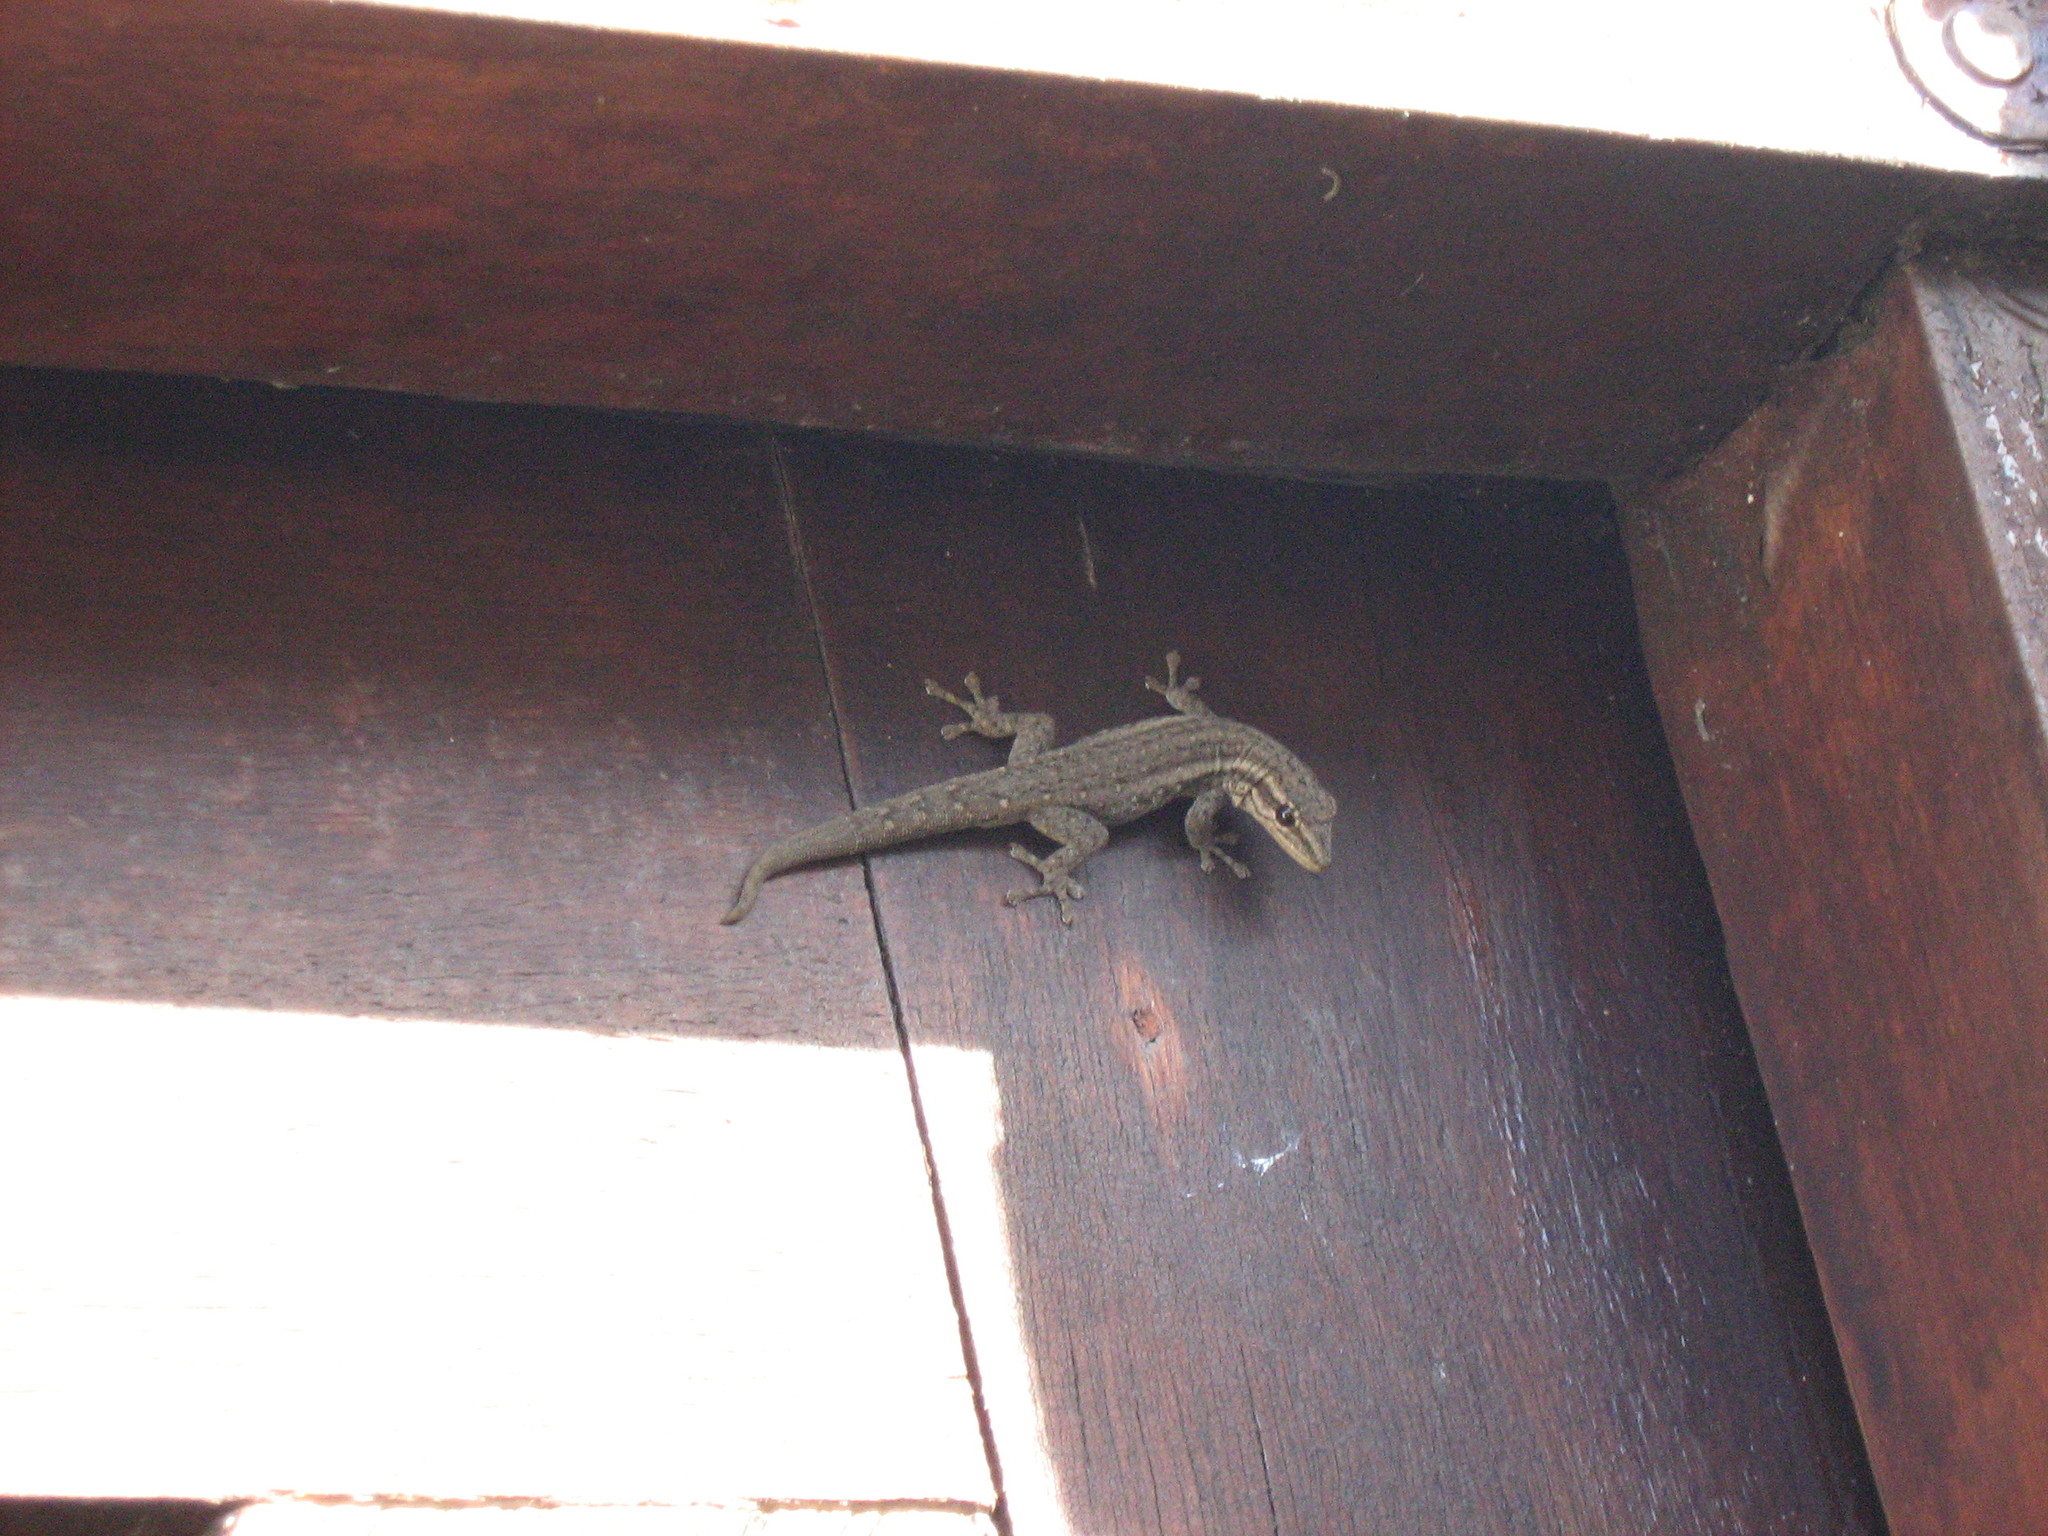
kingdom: Animalia
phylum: Chordata
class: Squamata
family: Gekkonidae
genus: Lygodactylus
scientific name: Lygodactylus capensis
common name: Cape dwarf gecko
